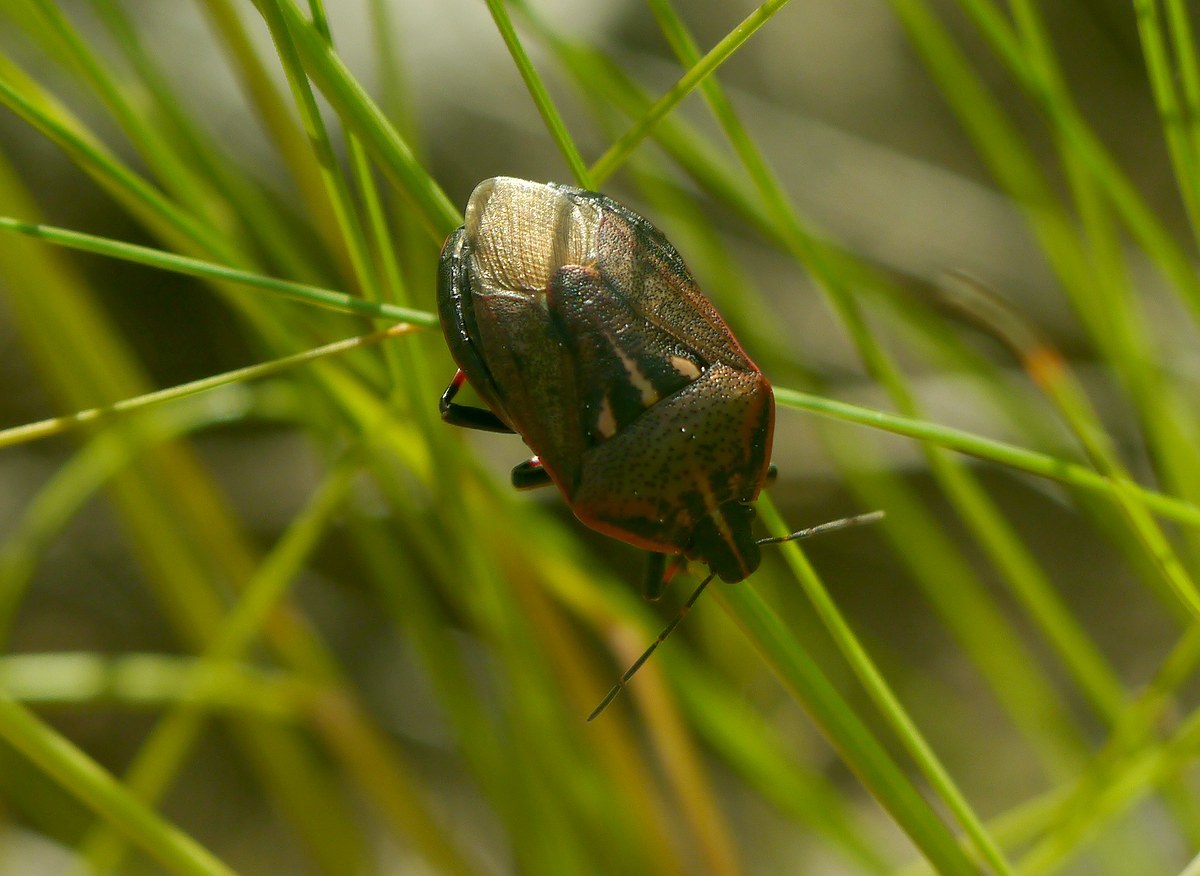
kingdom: Animalia
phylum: Arthropoda
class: Insecta
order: Hemiptera
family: Pentatomidae
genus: Jalla
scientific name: Jalla dumosa
